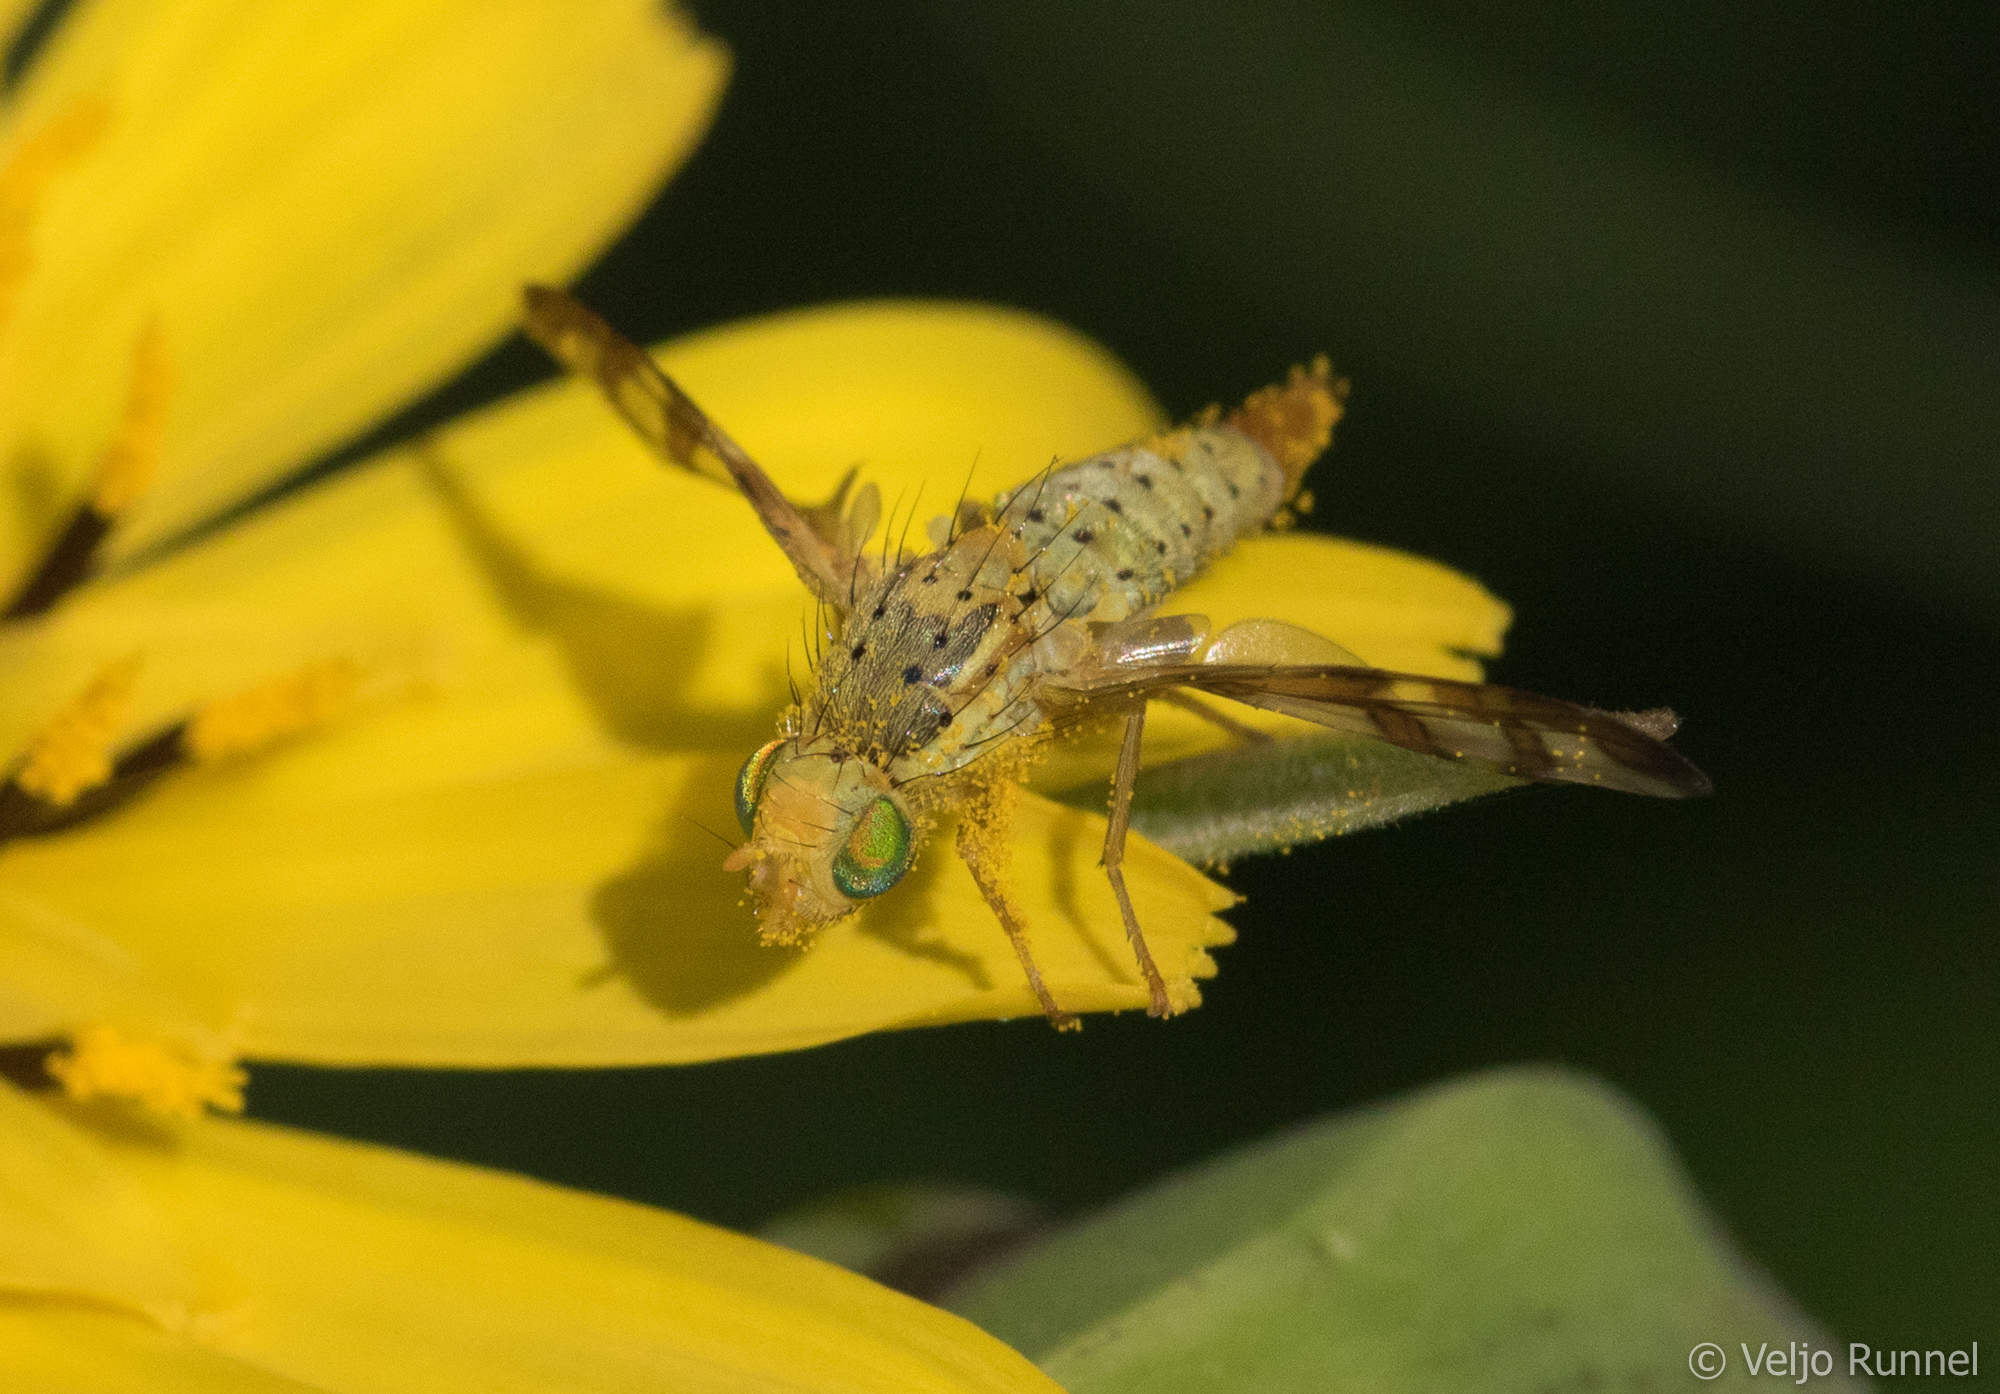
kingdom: Animalia
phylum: Arthropoda
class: Insecta
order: Diptera
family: Tephritidae
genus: Orellia
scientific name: Orellia falcata
